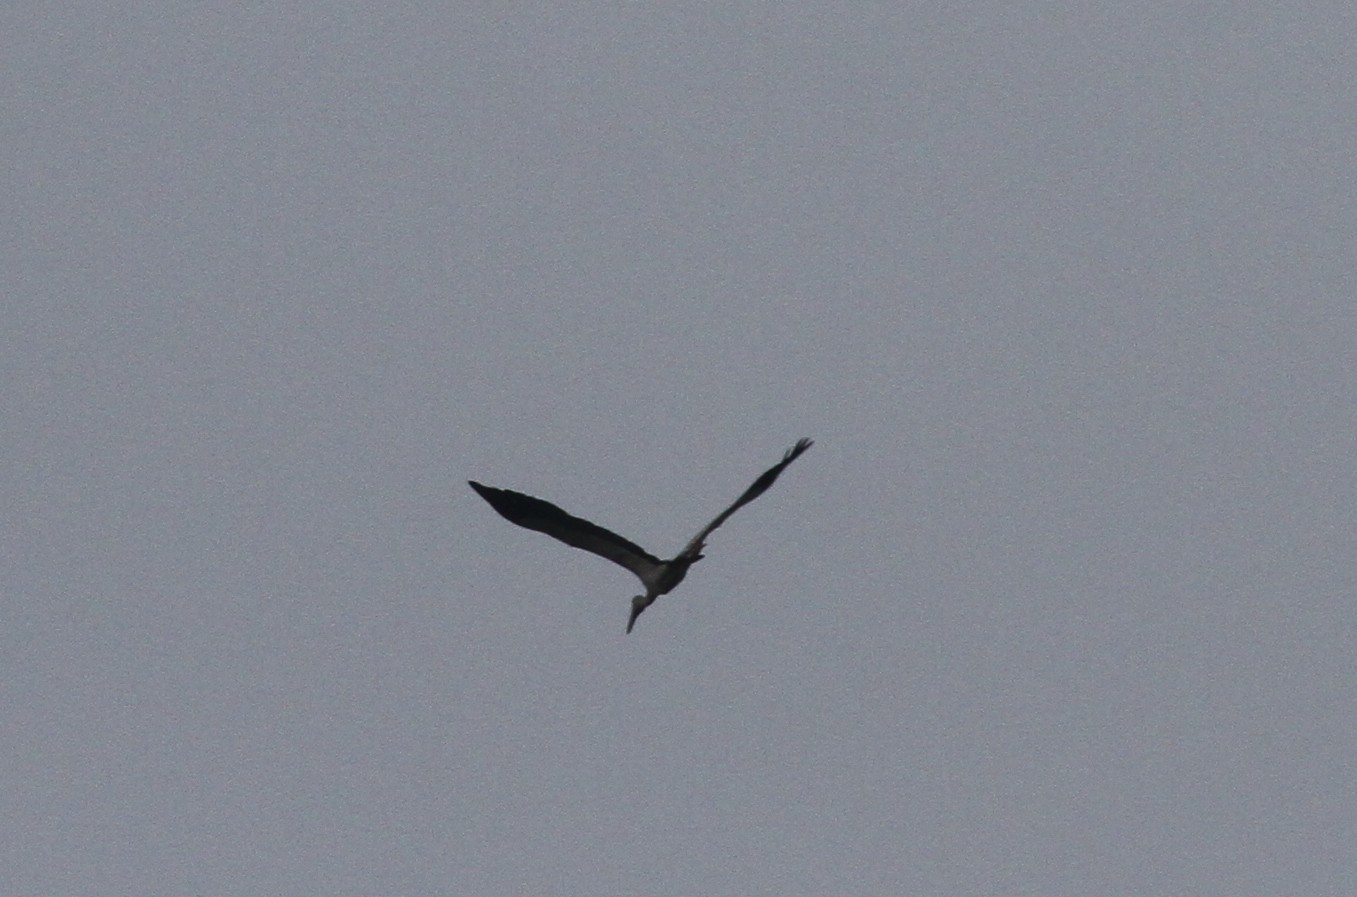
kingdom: Animalia
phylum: Chordata
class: Aves
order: Ciconiiformes
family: Ciconiidae
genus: Anastomus
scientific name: Anastomus oscitans
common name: Asian openbill
